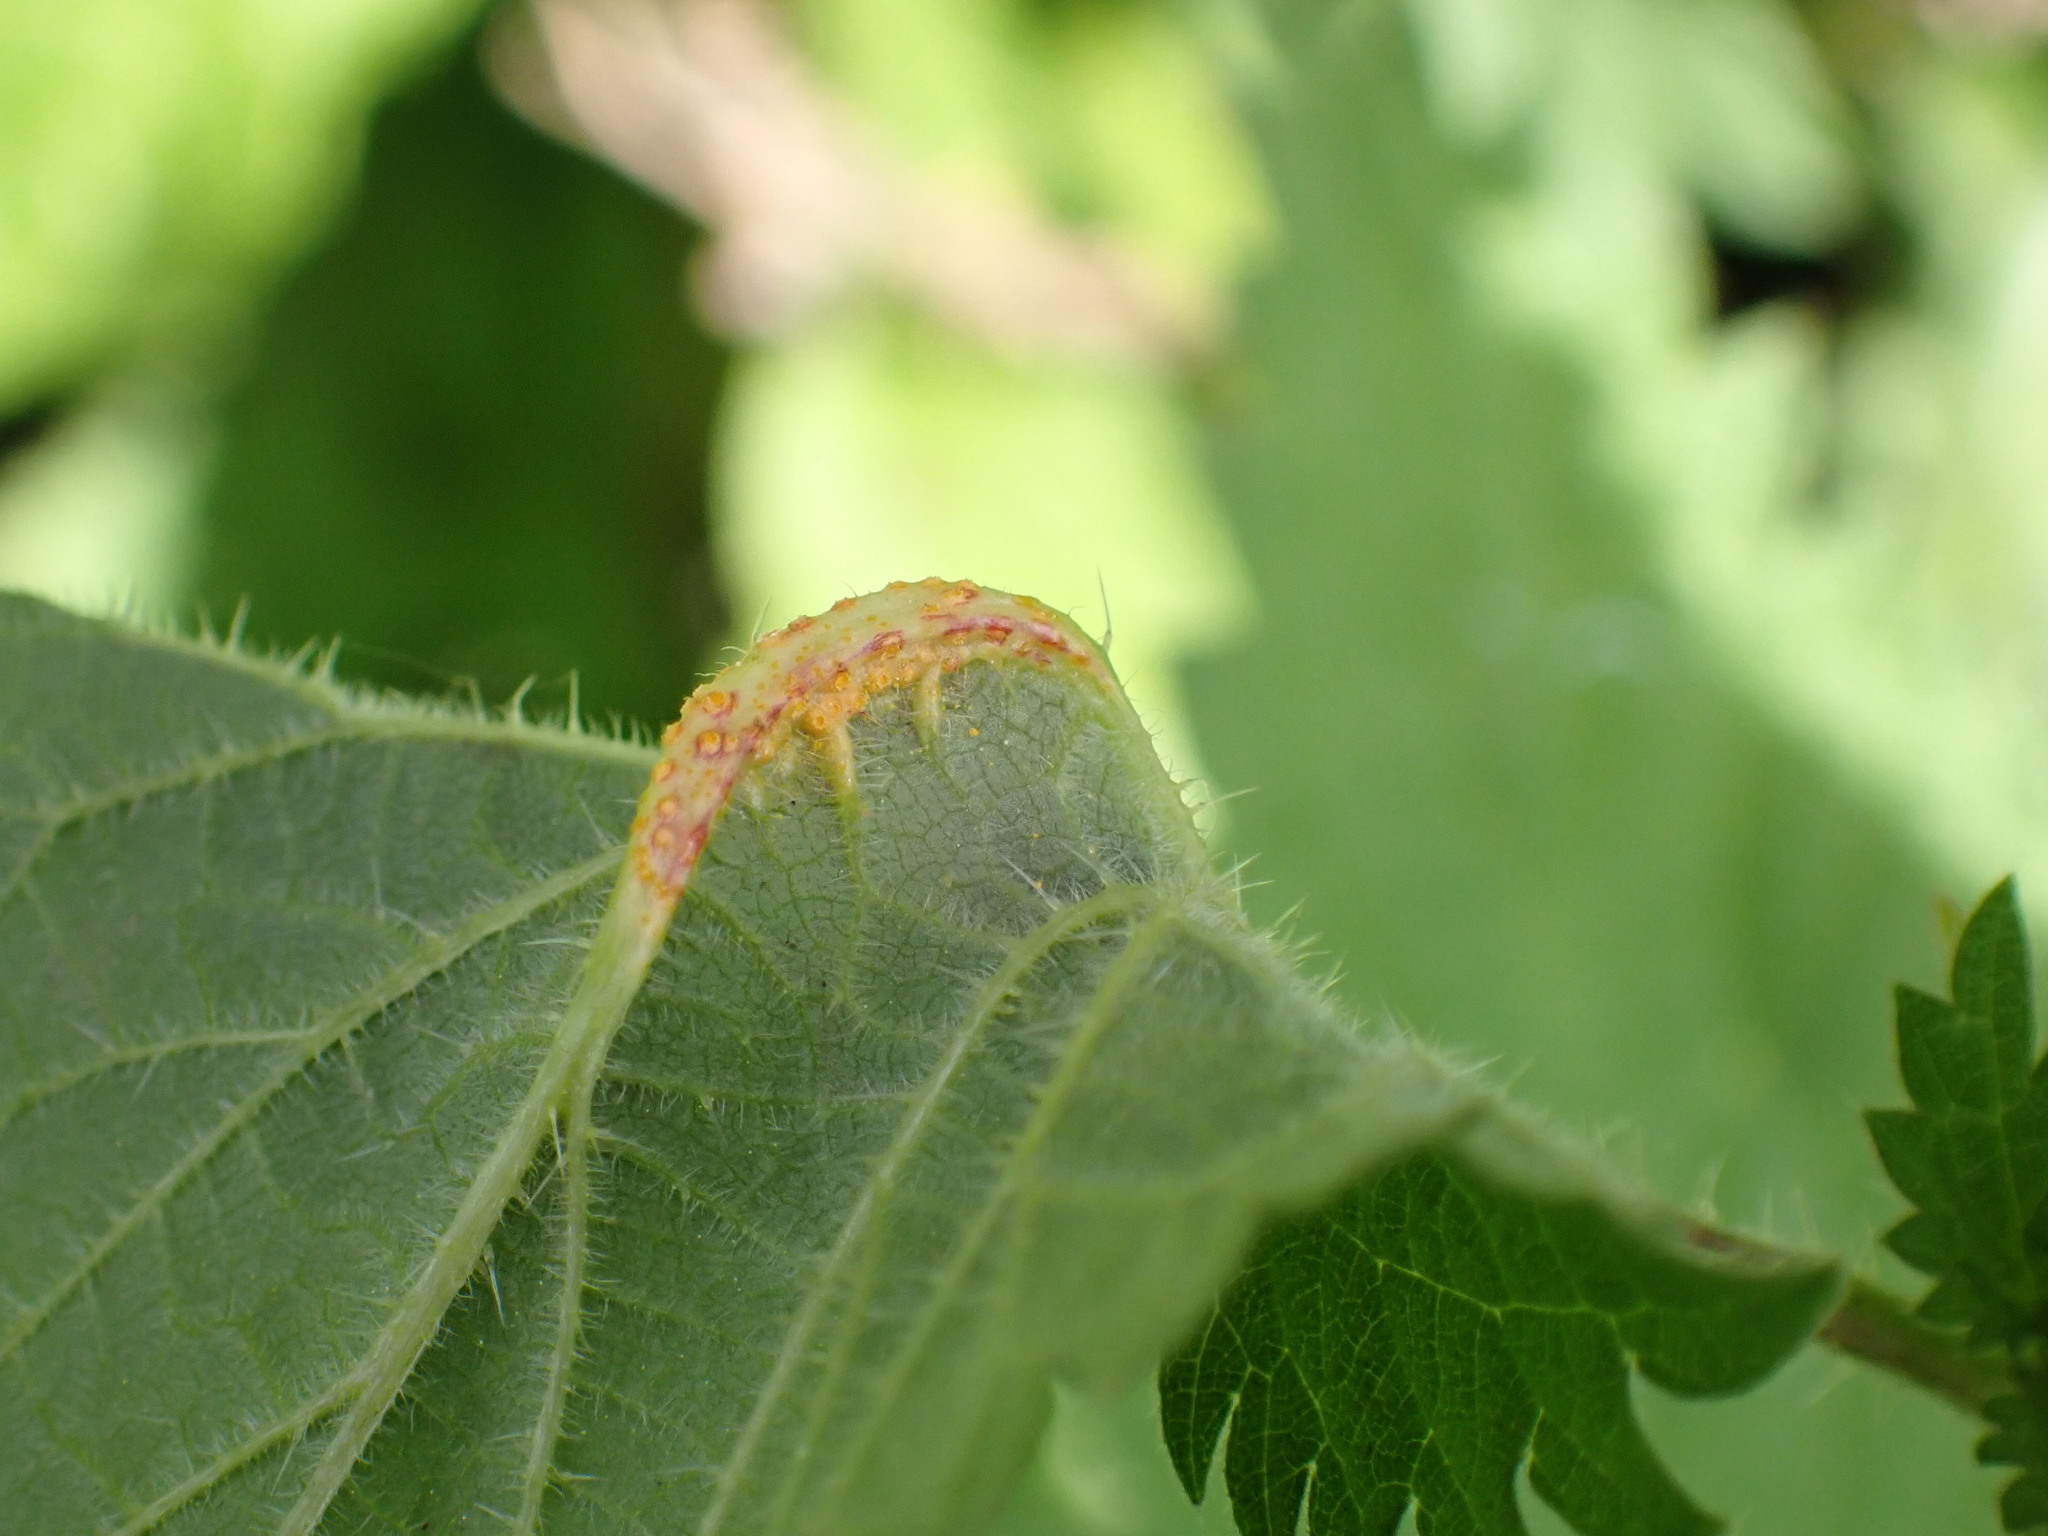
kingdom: Fungi
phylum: Basidiomycota
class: Pucciniomycetes
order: Pucciniales
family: Pucciniaceae
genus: Puccinia
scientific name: Puccinia urticata
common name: Nettle clustercup rust fungus
